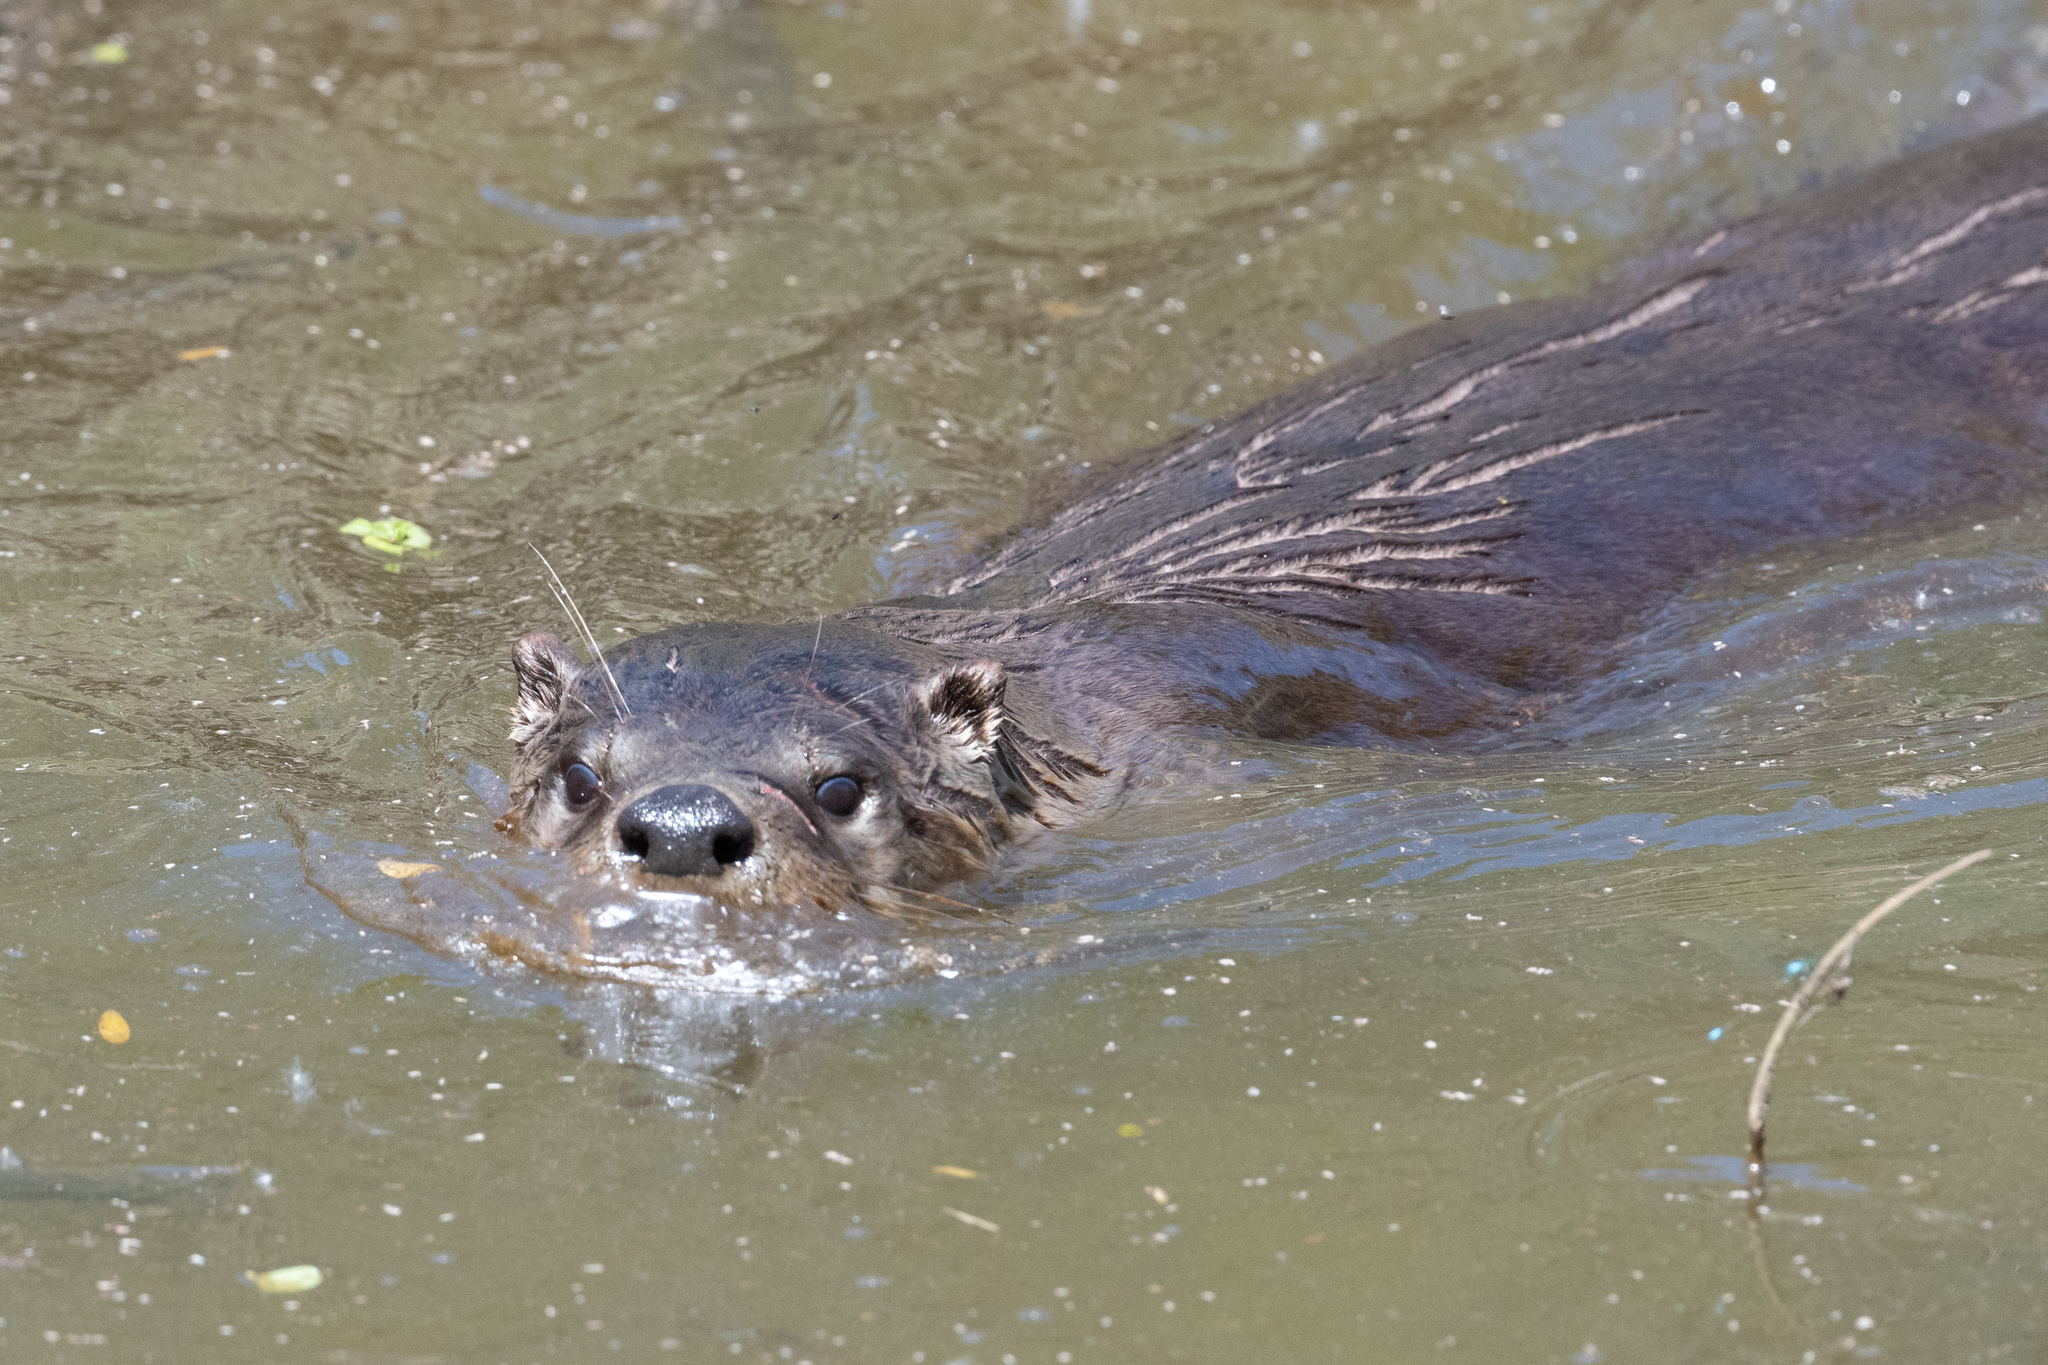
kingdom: Animalia
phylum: Chordata
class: Mammalia
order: Carnivora
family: Mustelidae
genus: Lontra
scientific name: Lontra canadensis
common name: North american river otter
